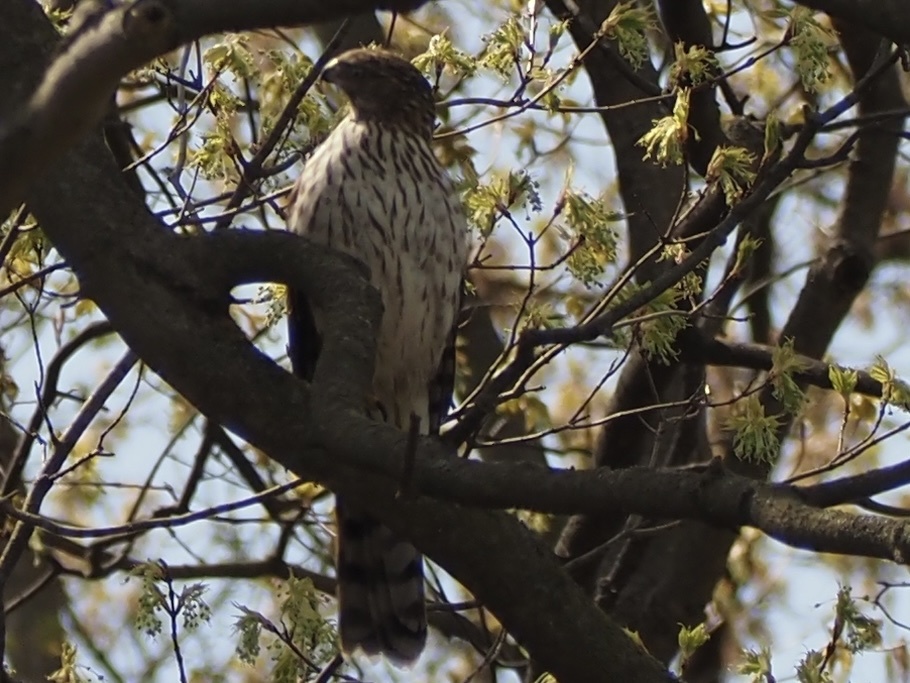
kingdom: Animalia
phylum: Chordata
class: Aves
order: Accipitriformes
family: Accipitridae
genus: Accipiter
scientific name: Accipiter cooperii
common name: Cooper's hawk
